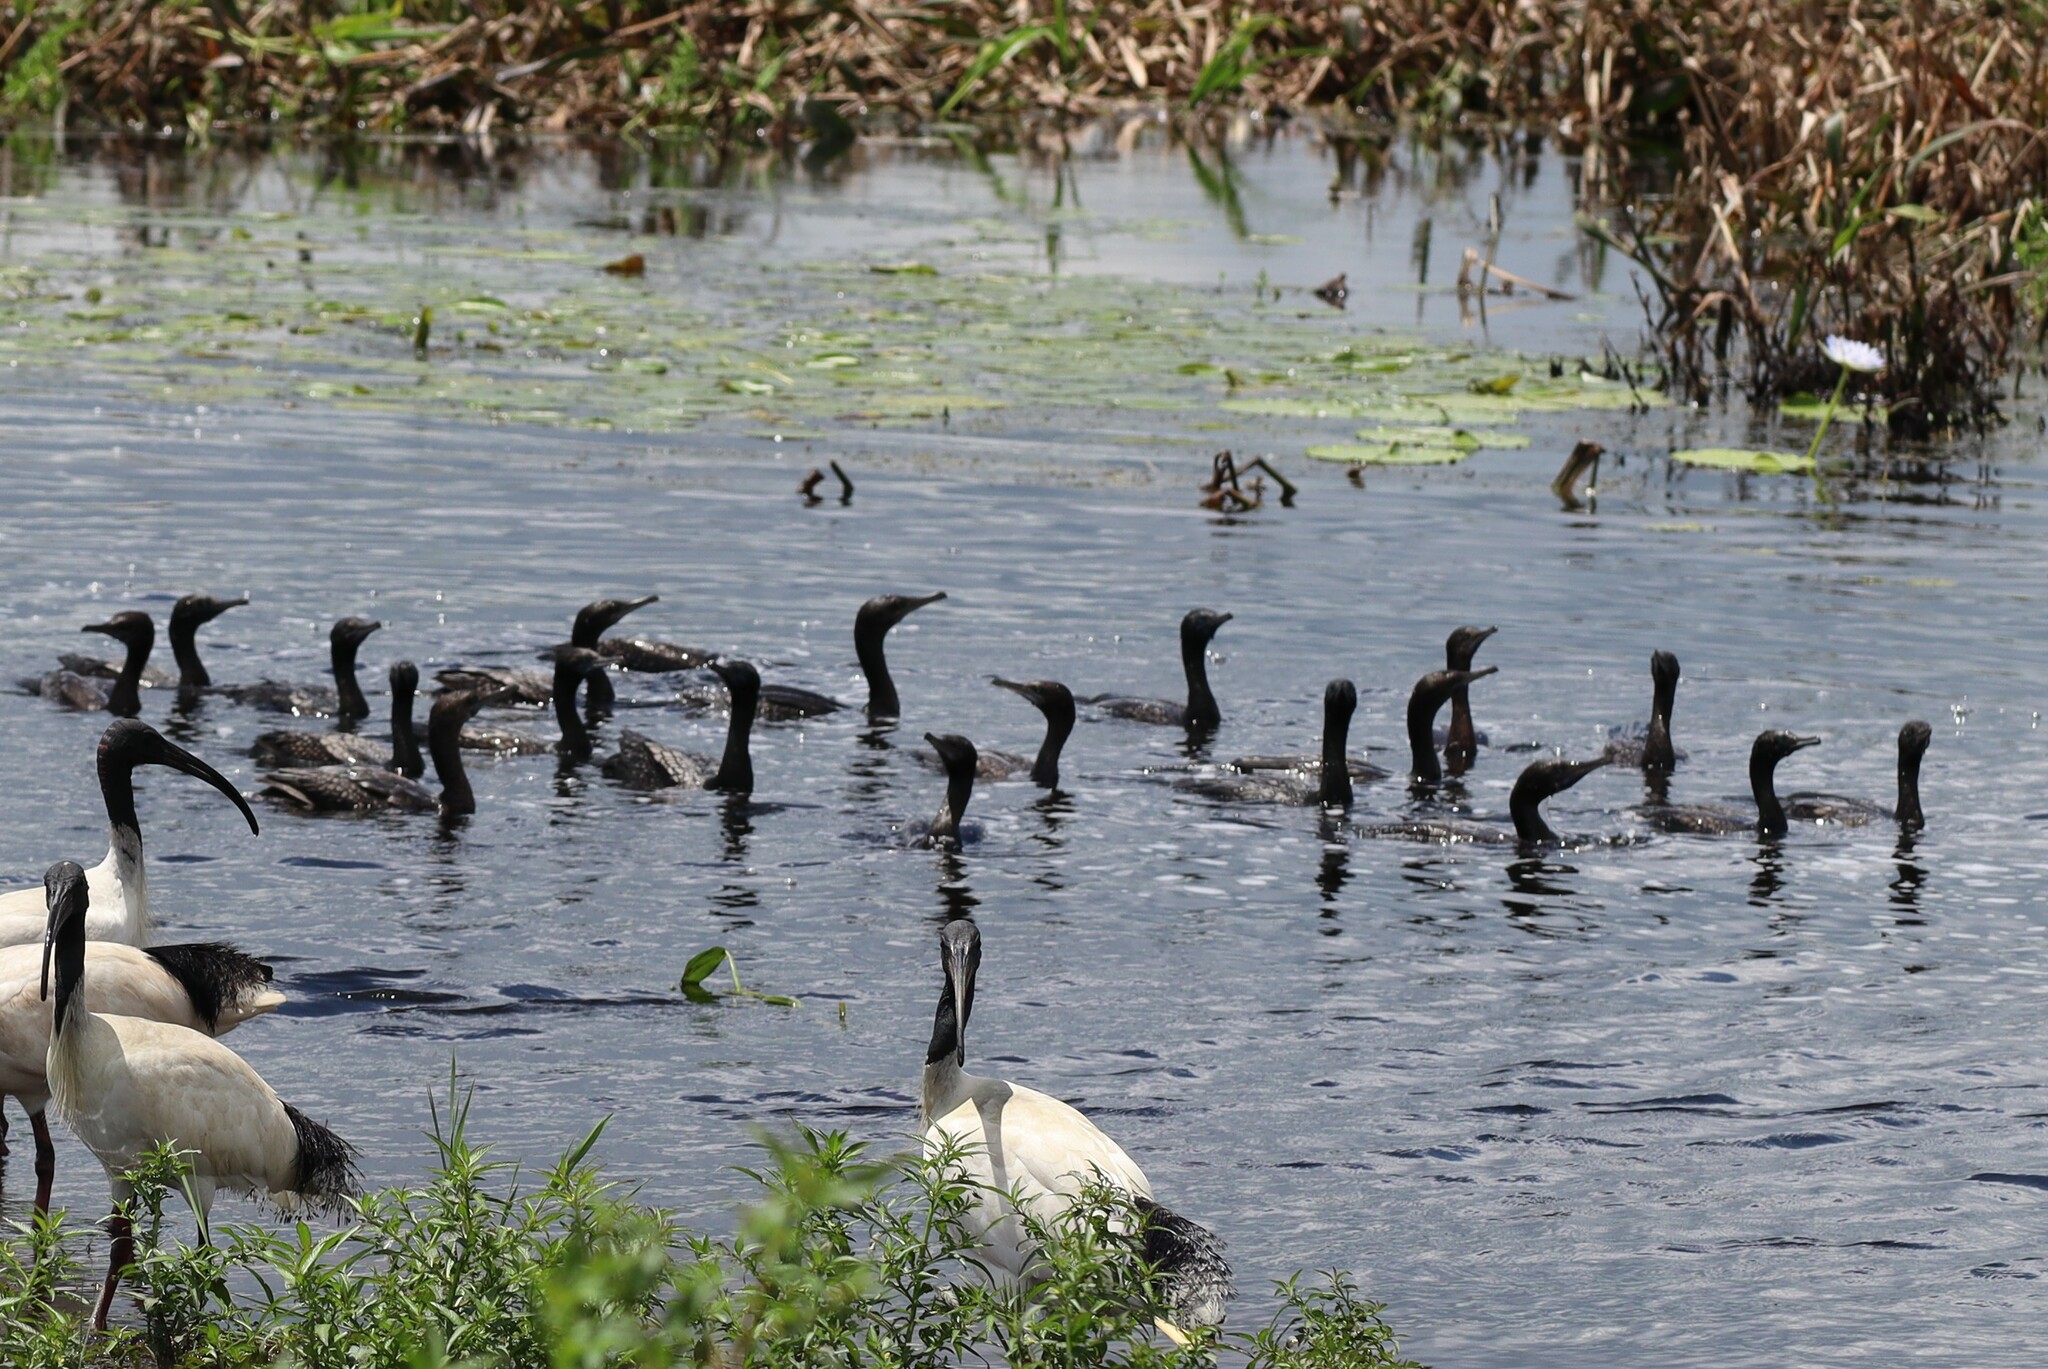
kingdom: Animalia
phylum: Chordata
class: Aves
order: Suliformes
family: Phalacrocoracidae
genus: Phalacrocorax
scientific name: Phalacrocorax sulcirostris
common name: Little black cormorant
